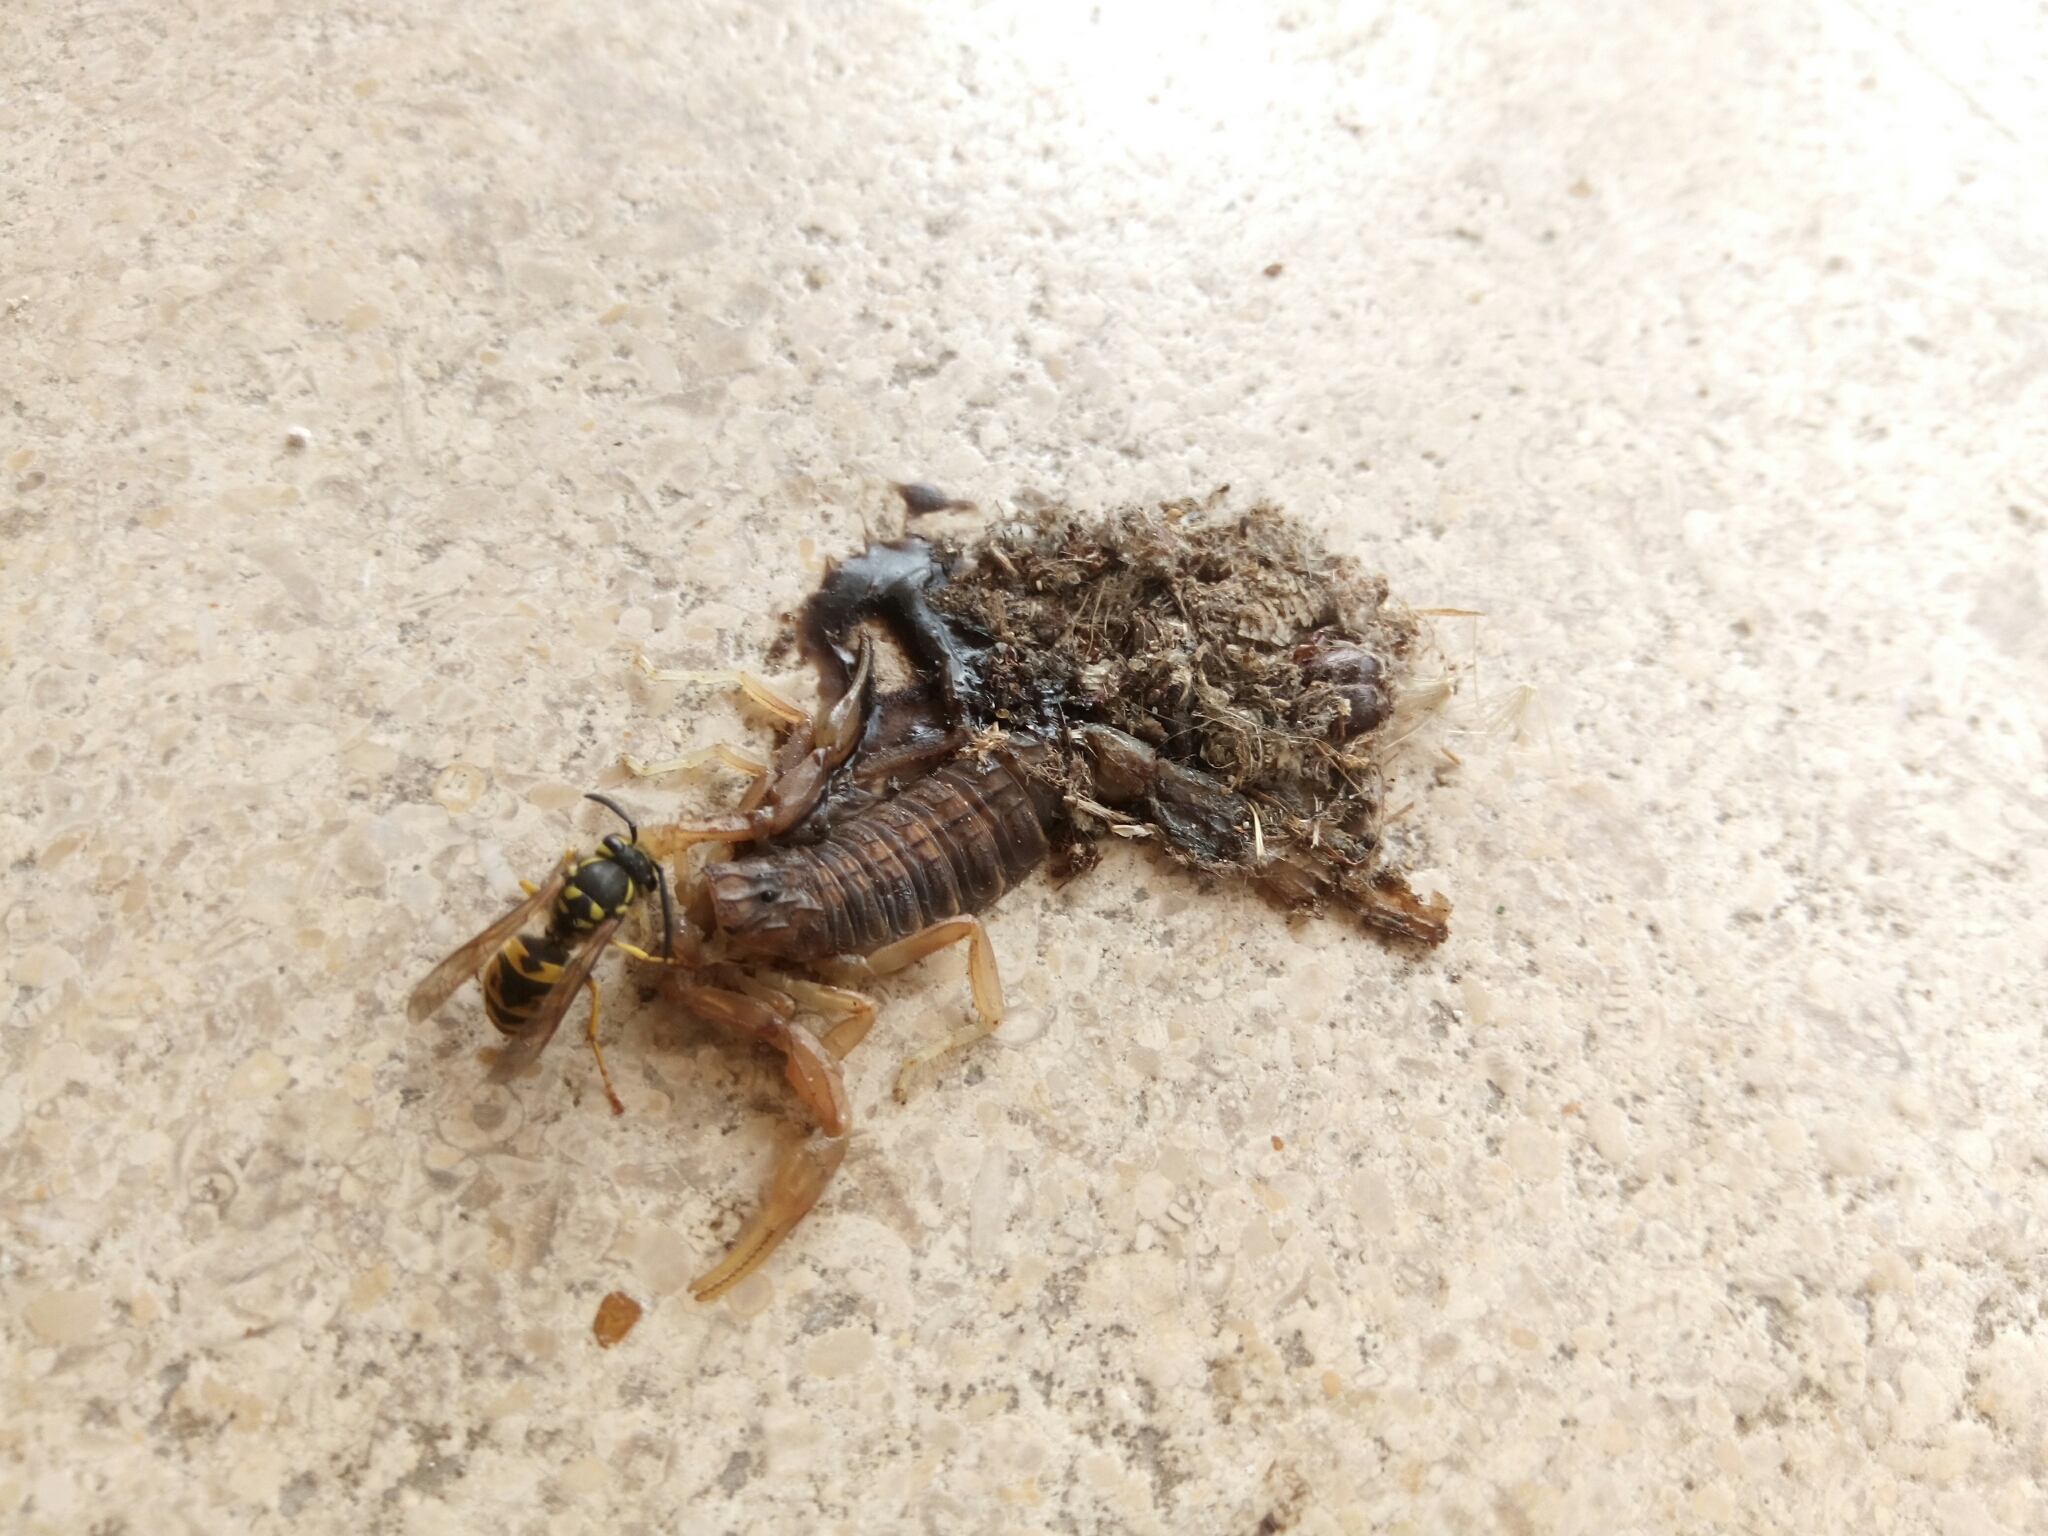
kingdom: Animalia
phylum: Arthropoda
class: Arachnida
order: Scorpiones
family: Buthidae
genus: Buthus
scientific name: Buthus gabani
